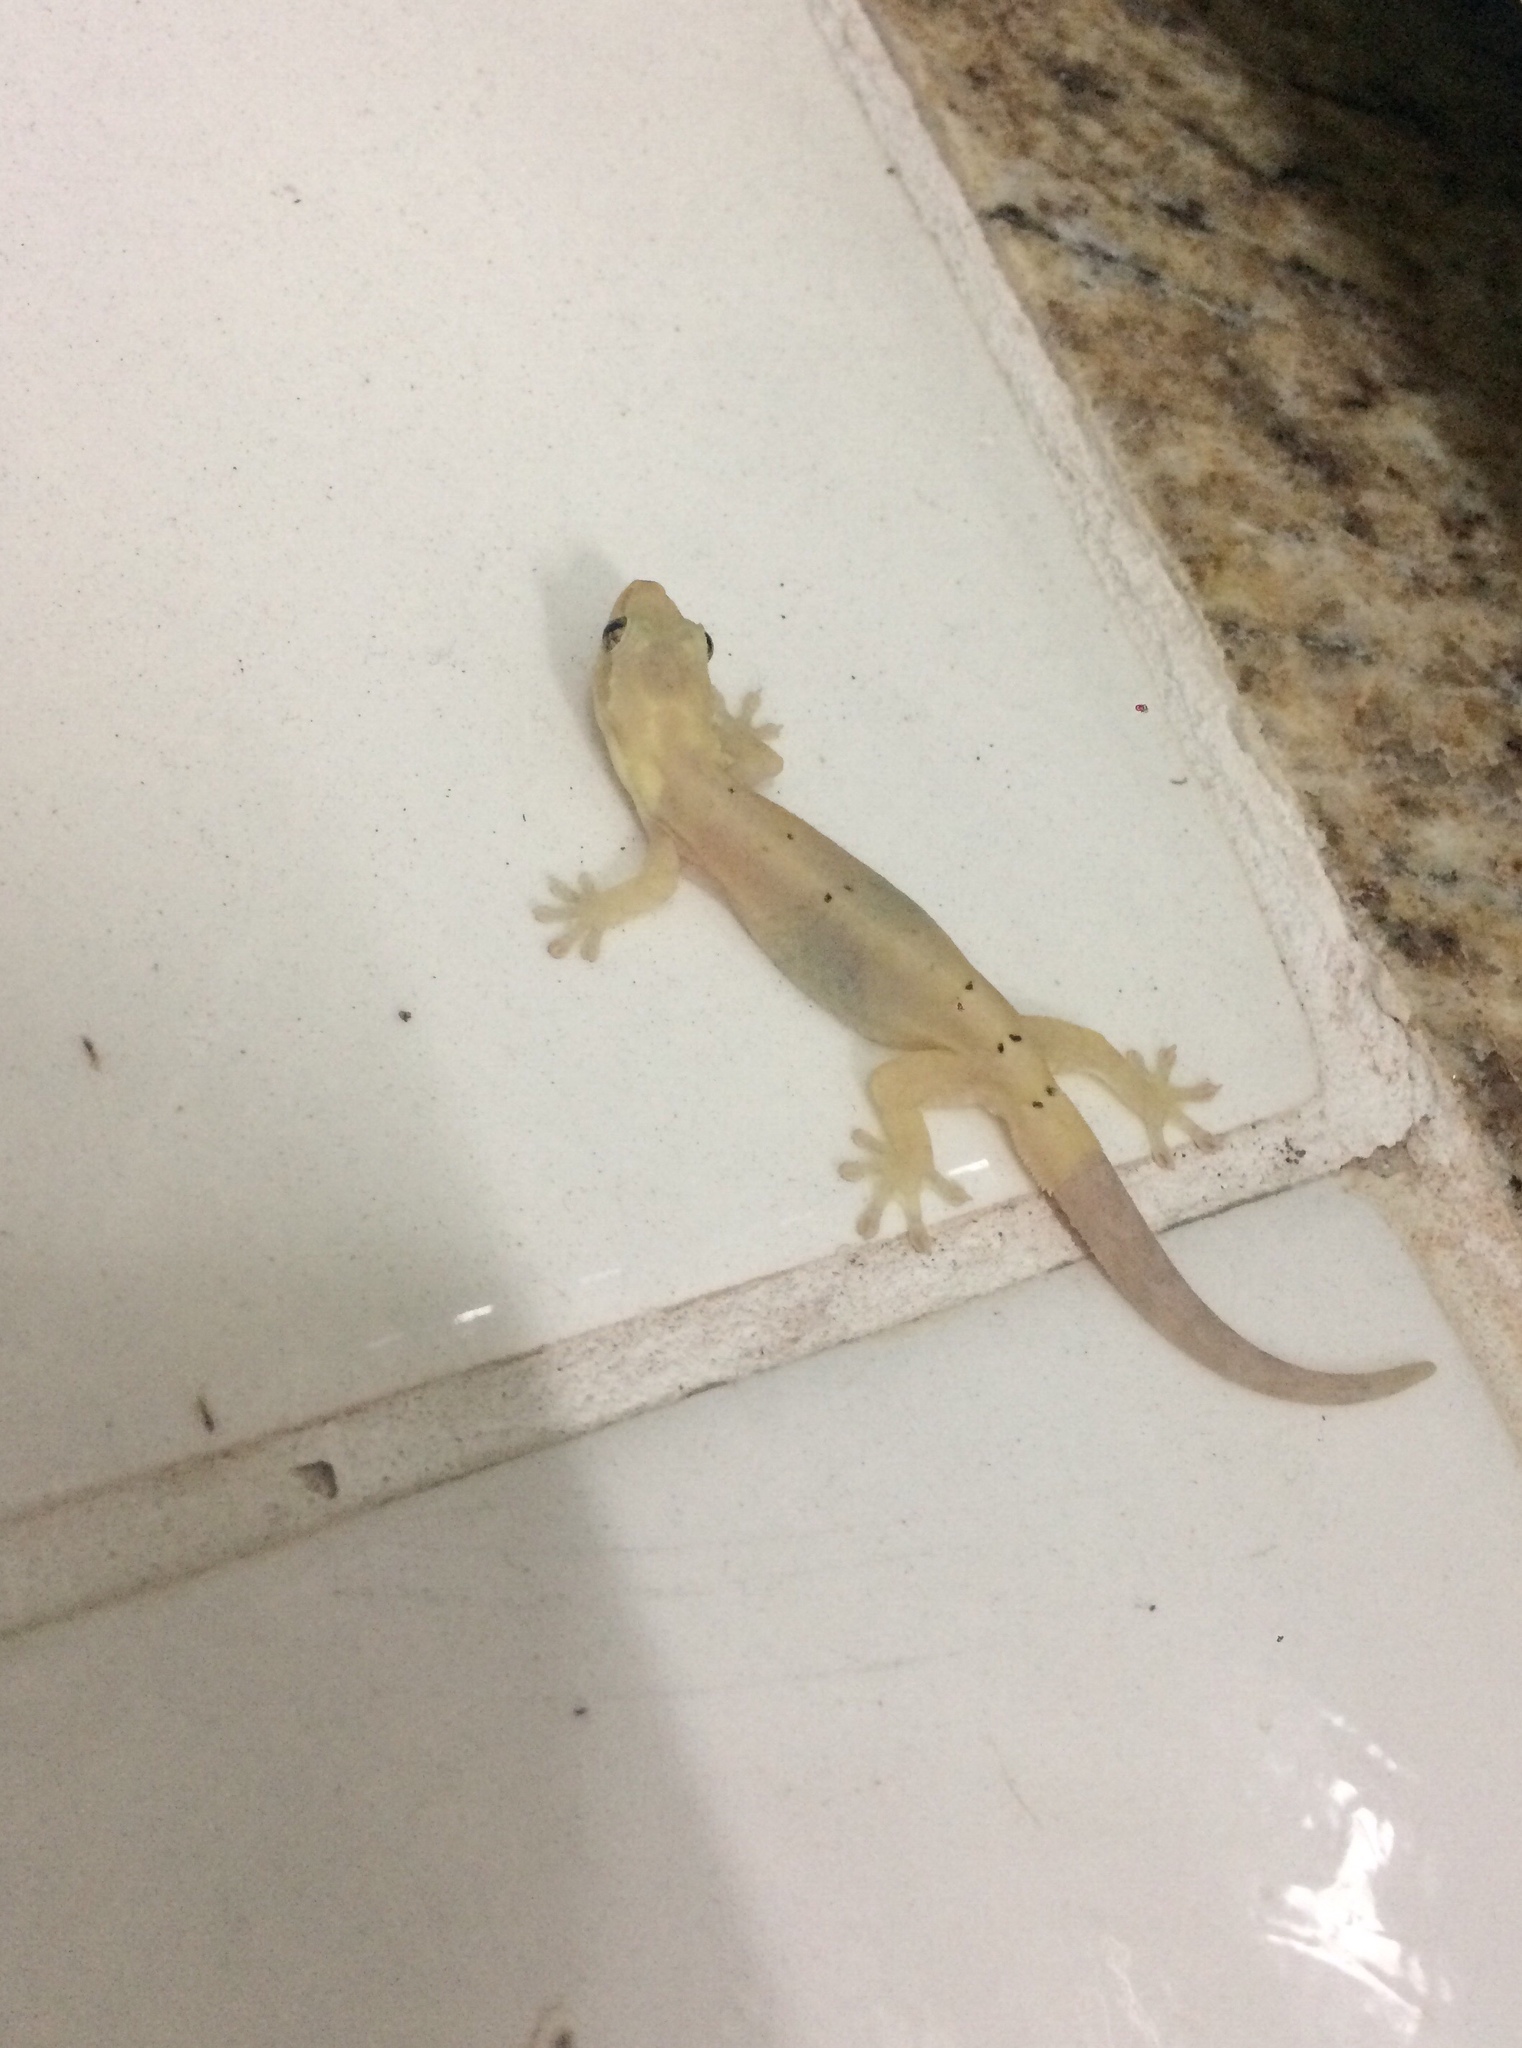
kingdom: Animalia
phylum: Chordata
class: Squamata
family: Gekkonidae
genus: Lepidodactylus
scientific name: Lepidodactylus lugubris
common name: Mourning gecko
